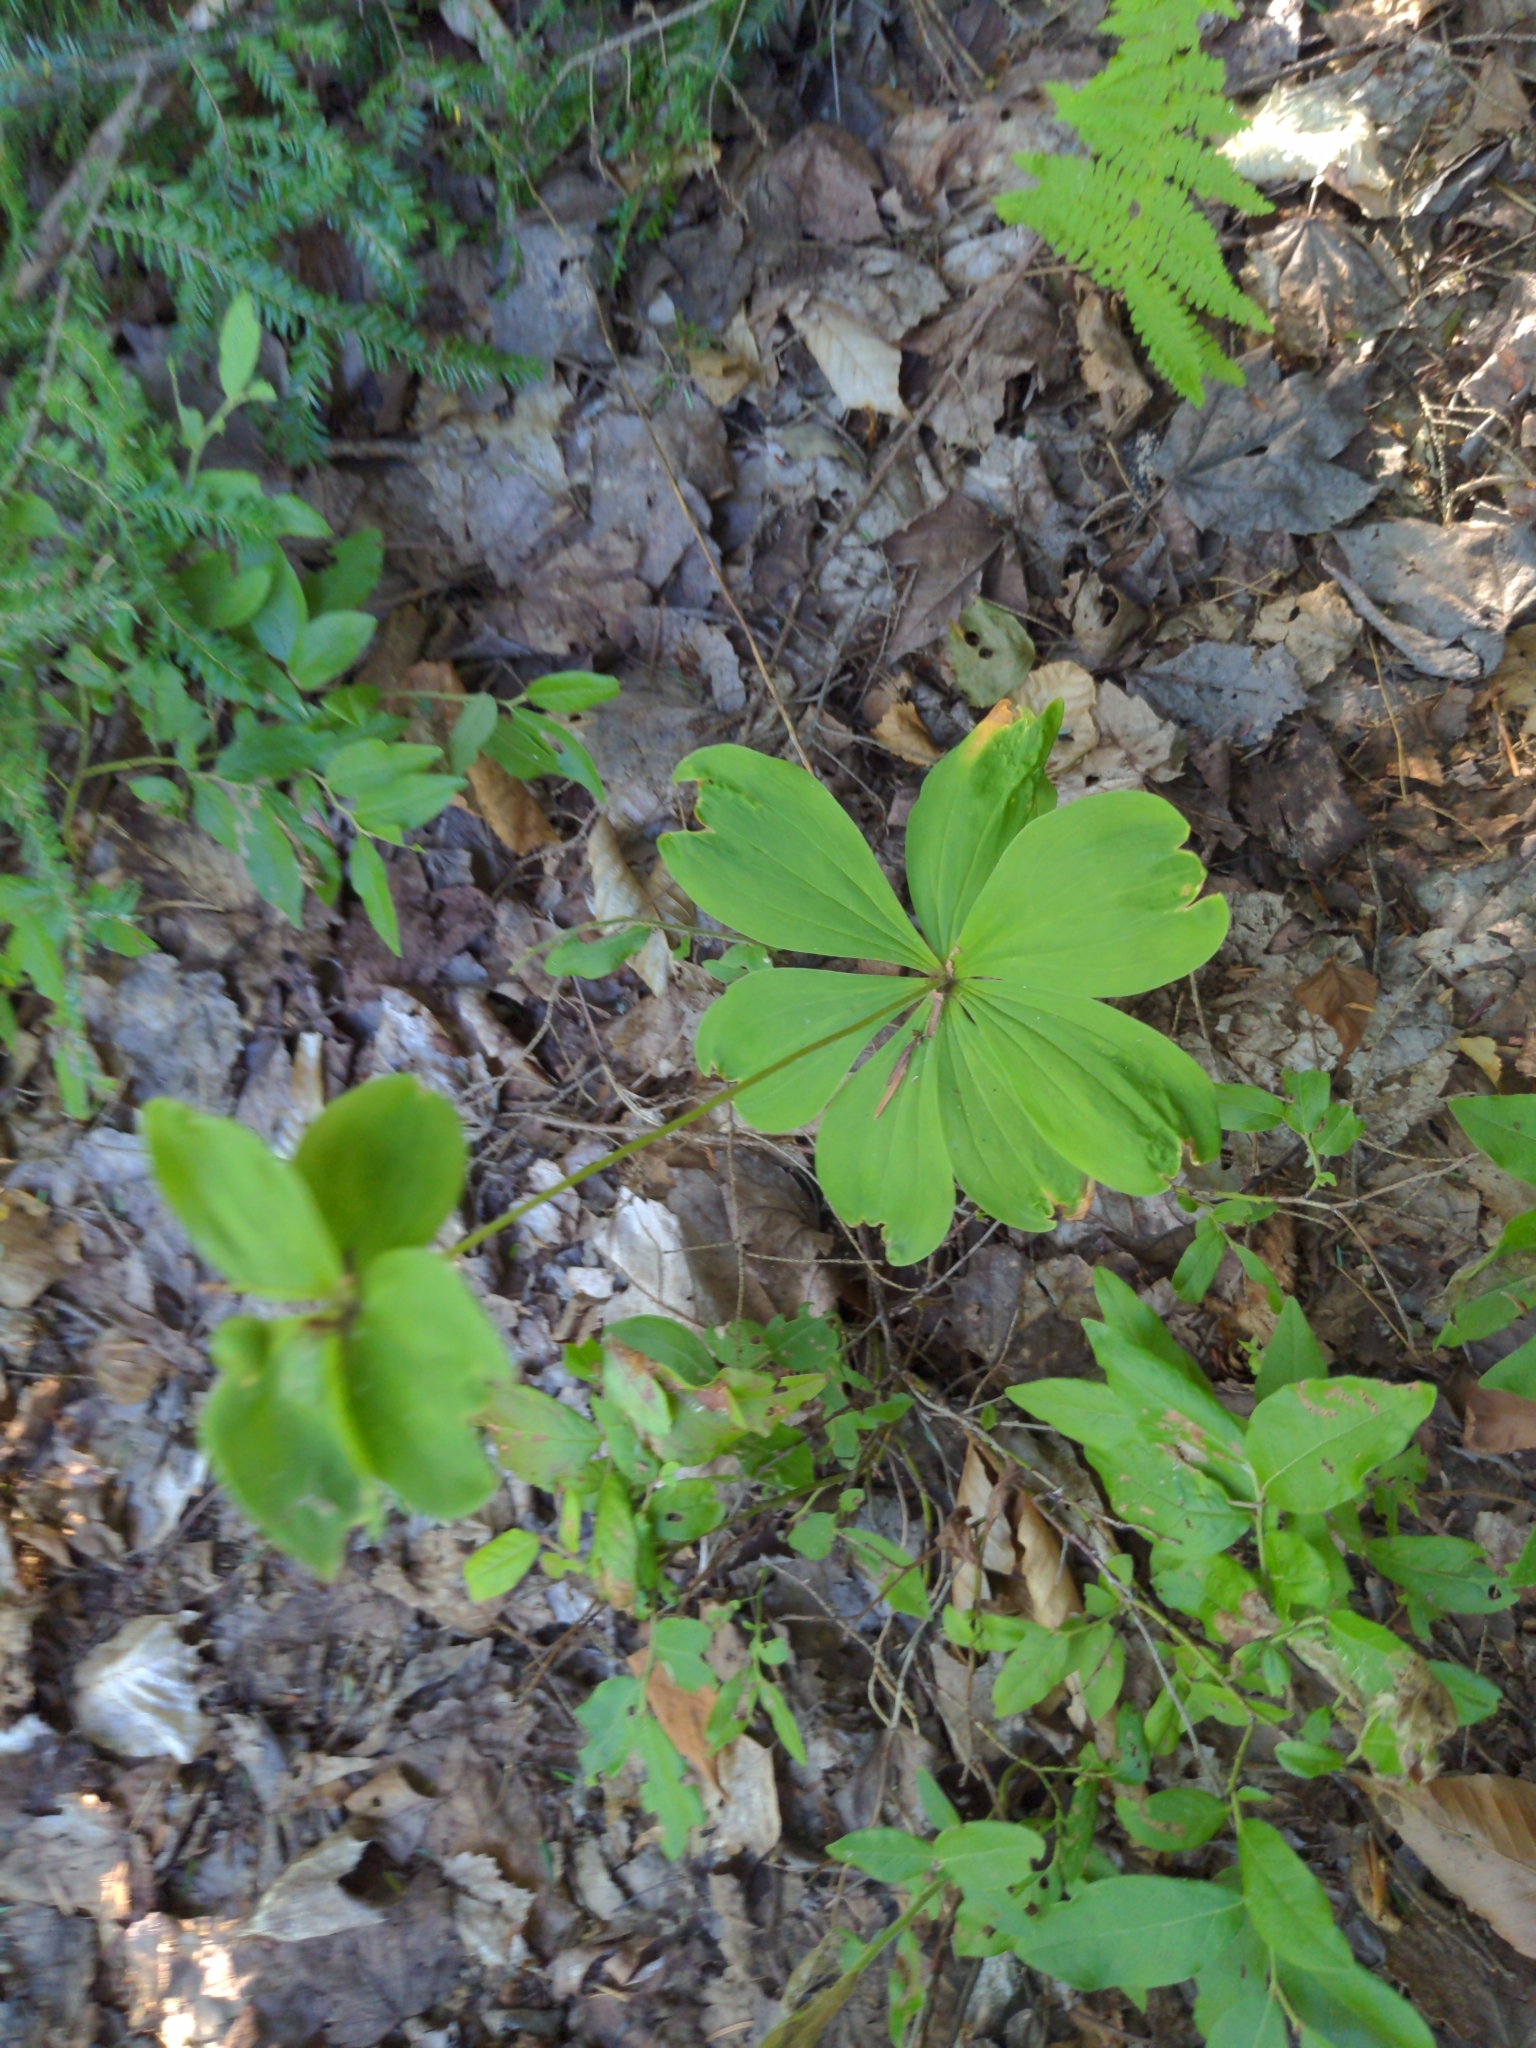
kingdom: Plantae
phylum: Tracheophyta
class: Liliopsida
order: Liliales
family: Liliaceae
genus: Medeola
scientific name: Medeola virginiana
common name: Indian cucumber-root
